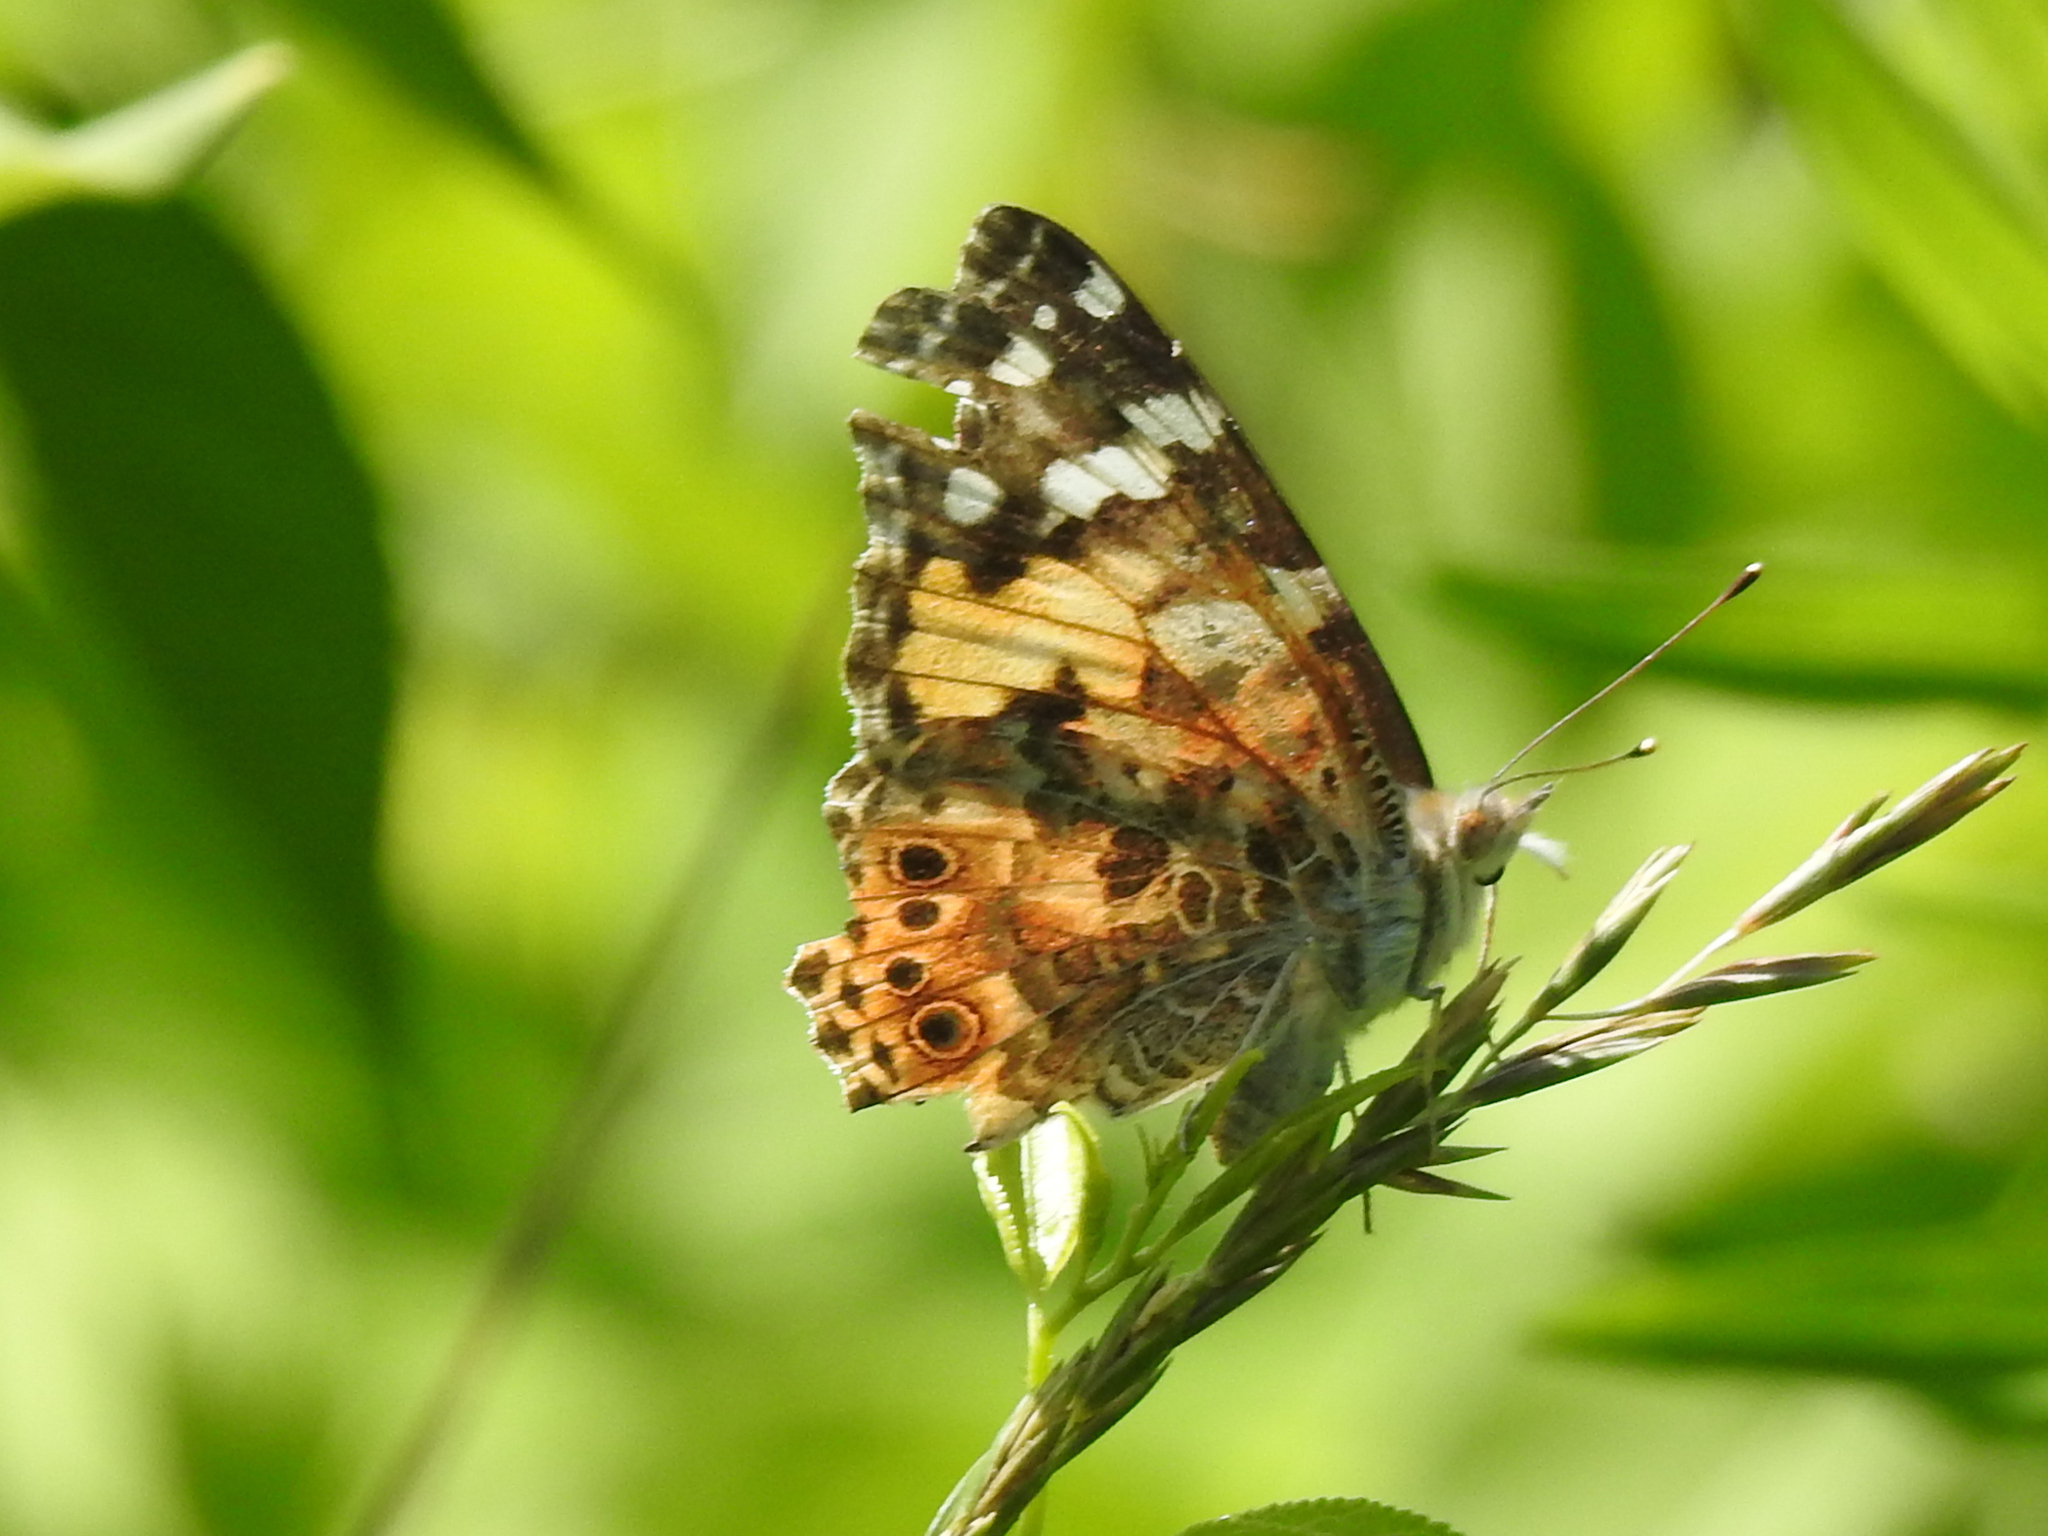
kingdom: Animalia
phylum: Arthropoda
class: Insecta
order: Lepidoptera
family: Nymphalidae
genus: Vanessa
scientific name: Vanessa cardui
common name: Painted lady
